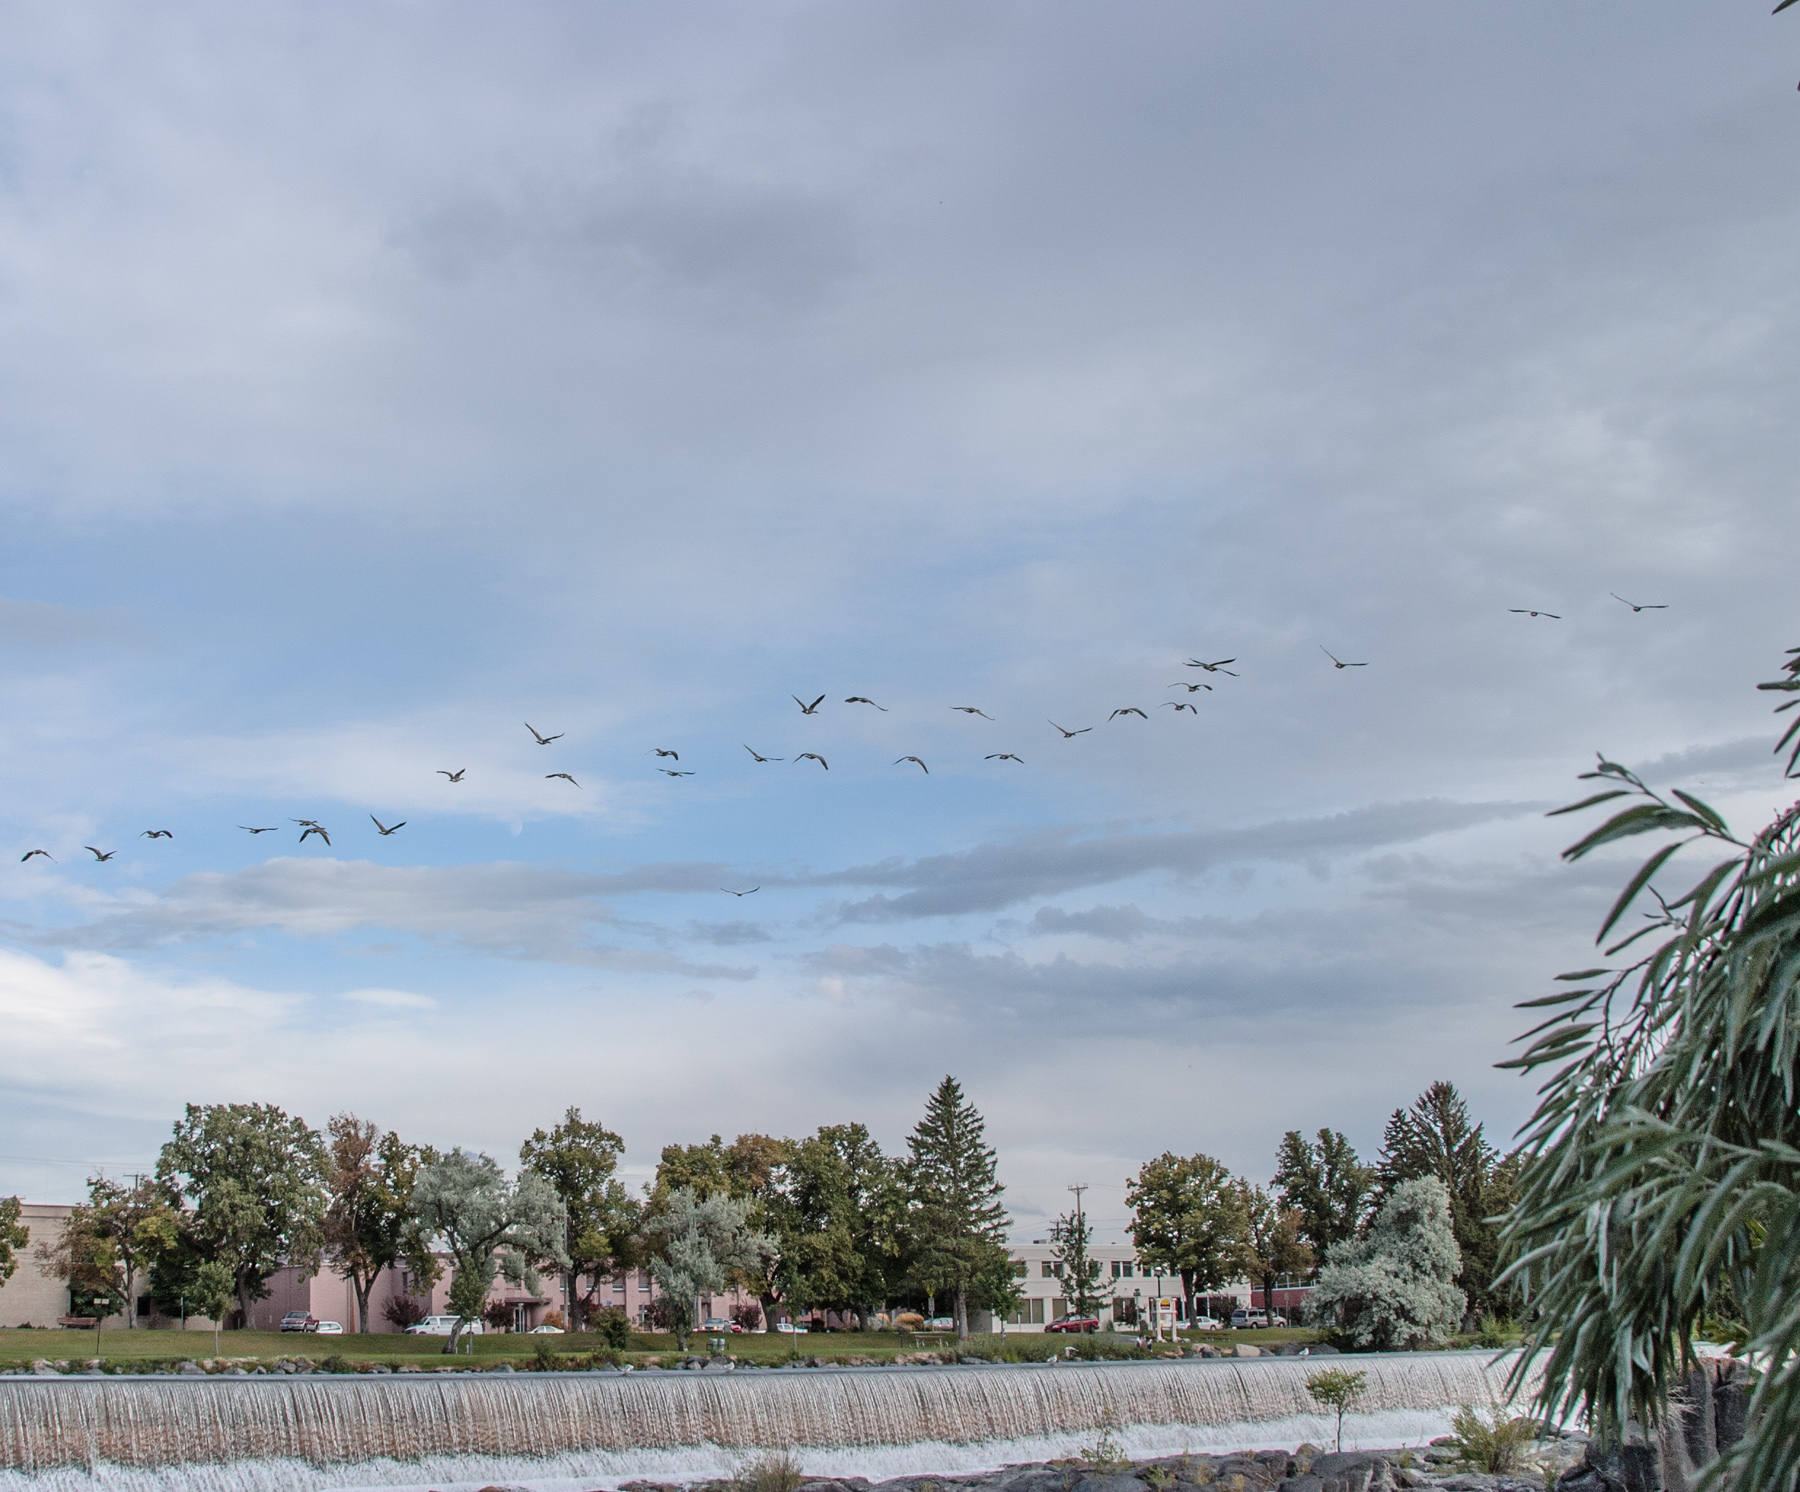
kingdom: Animalia
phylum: Chordata
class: Aves
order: Anseriformes
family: Anatidae
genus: Branta
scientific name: Branta canadensis
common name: Canada goose
